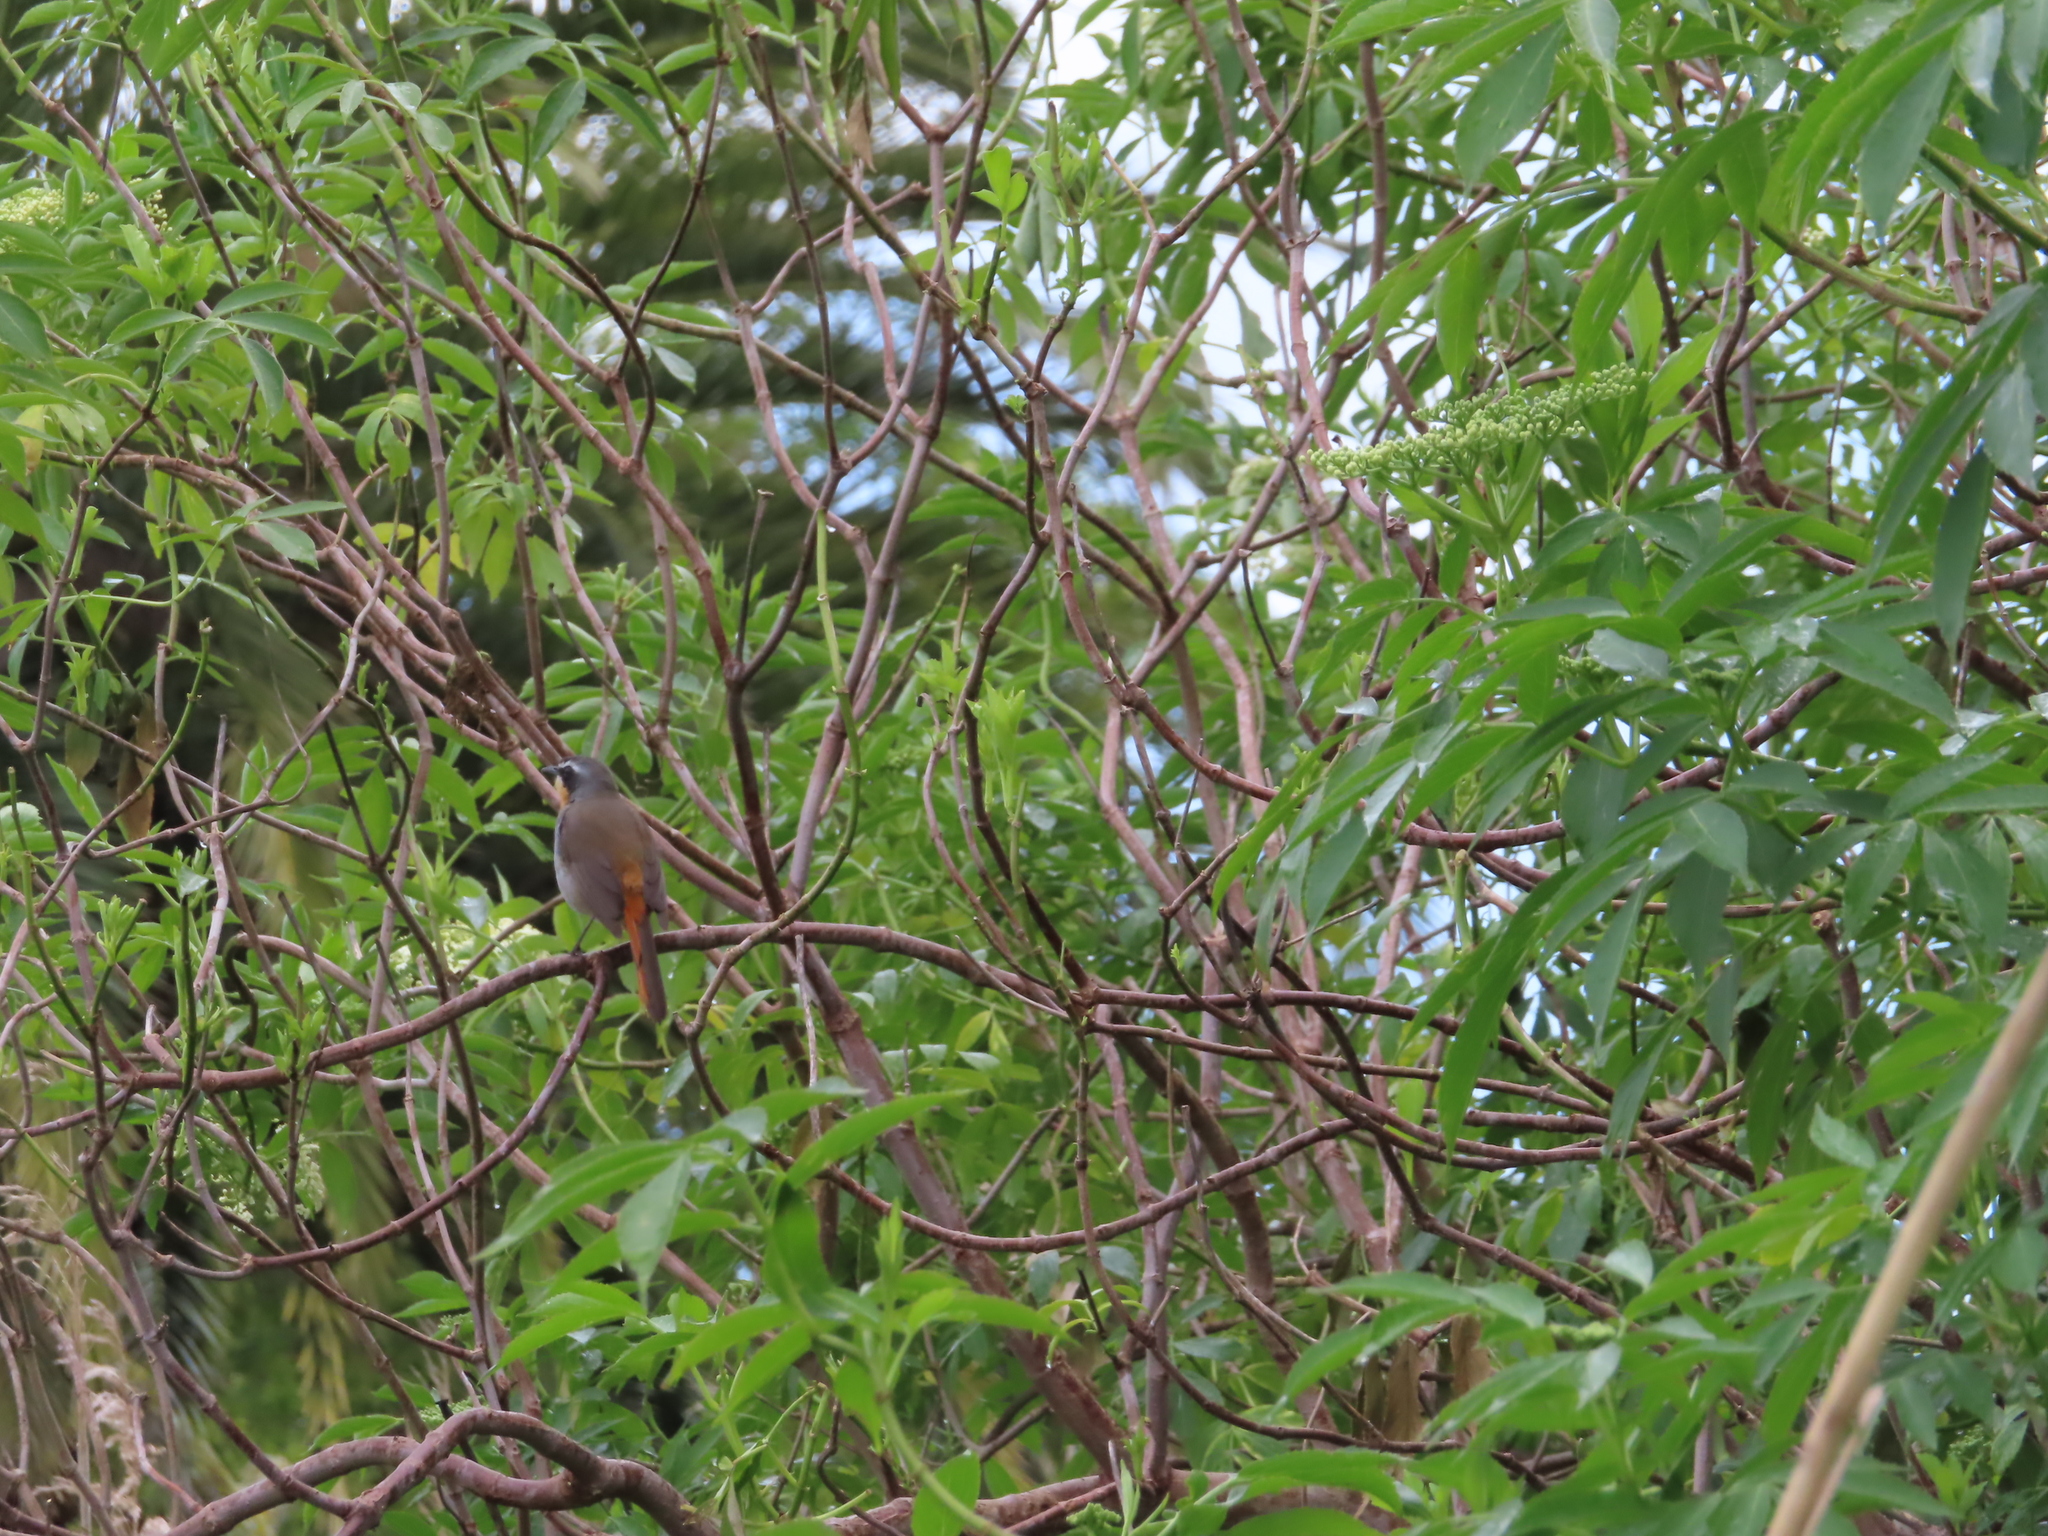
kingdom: Animalia
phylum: Chordata
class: Aves
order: Passeriformes
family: Muscicapidae
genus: Cossypha
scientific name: Cossypha caffra
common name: Cape robin-chat
